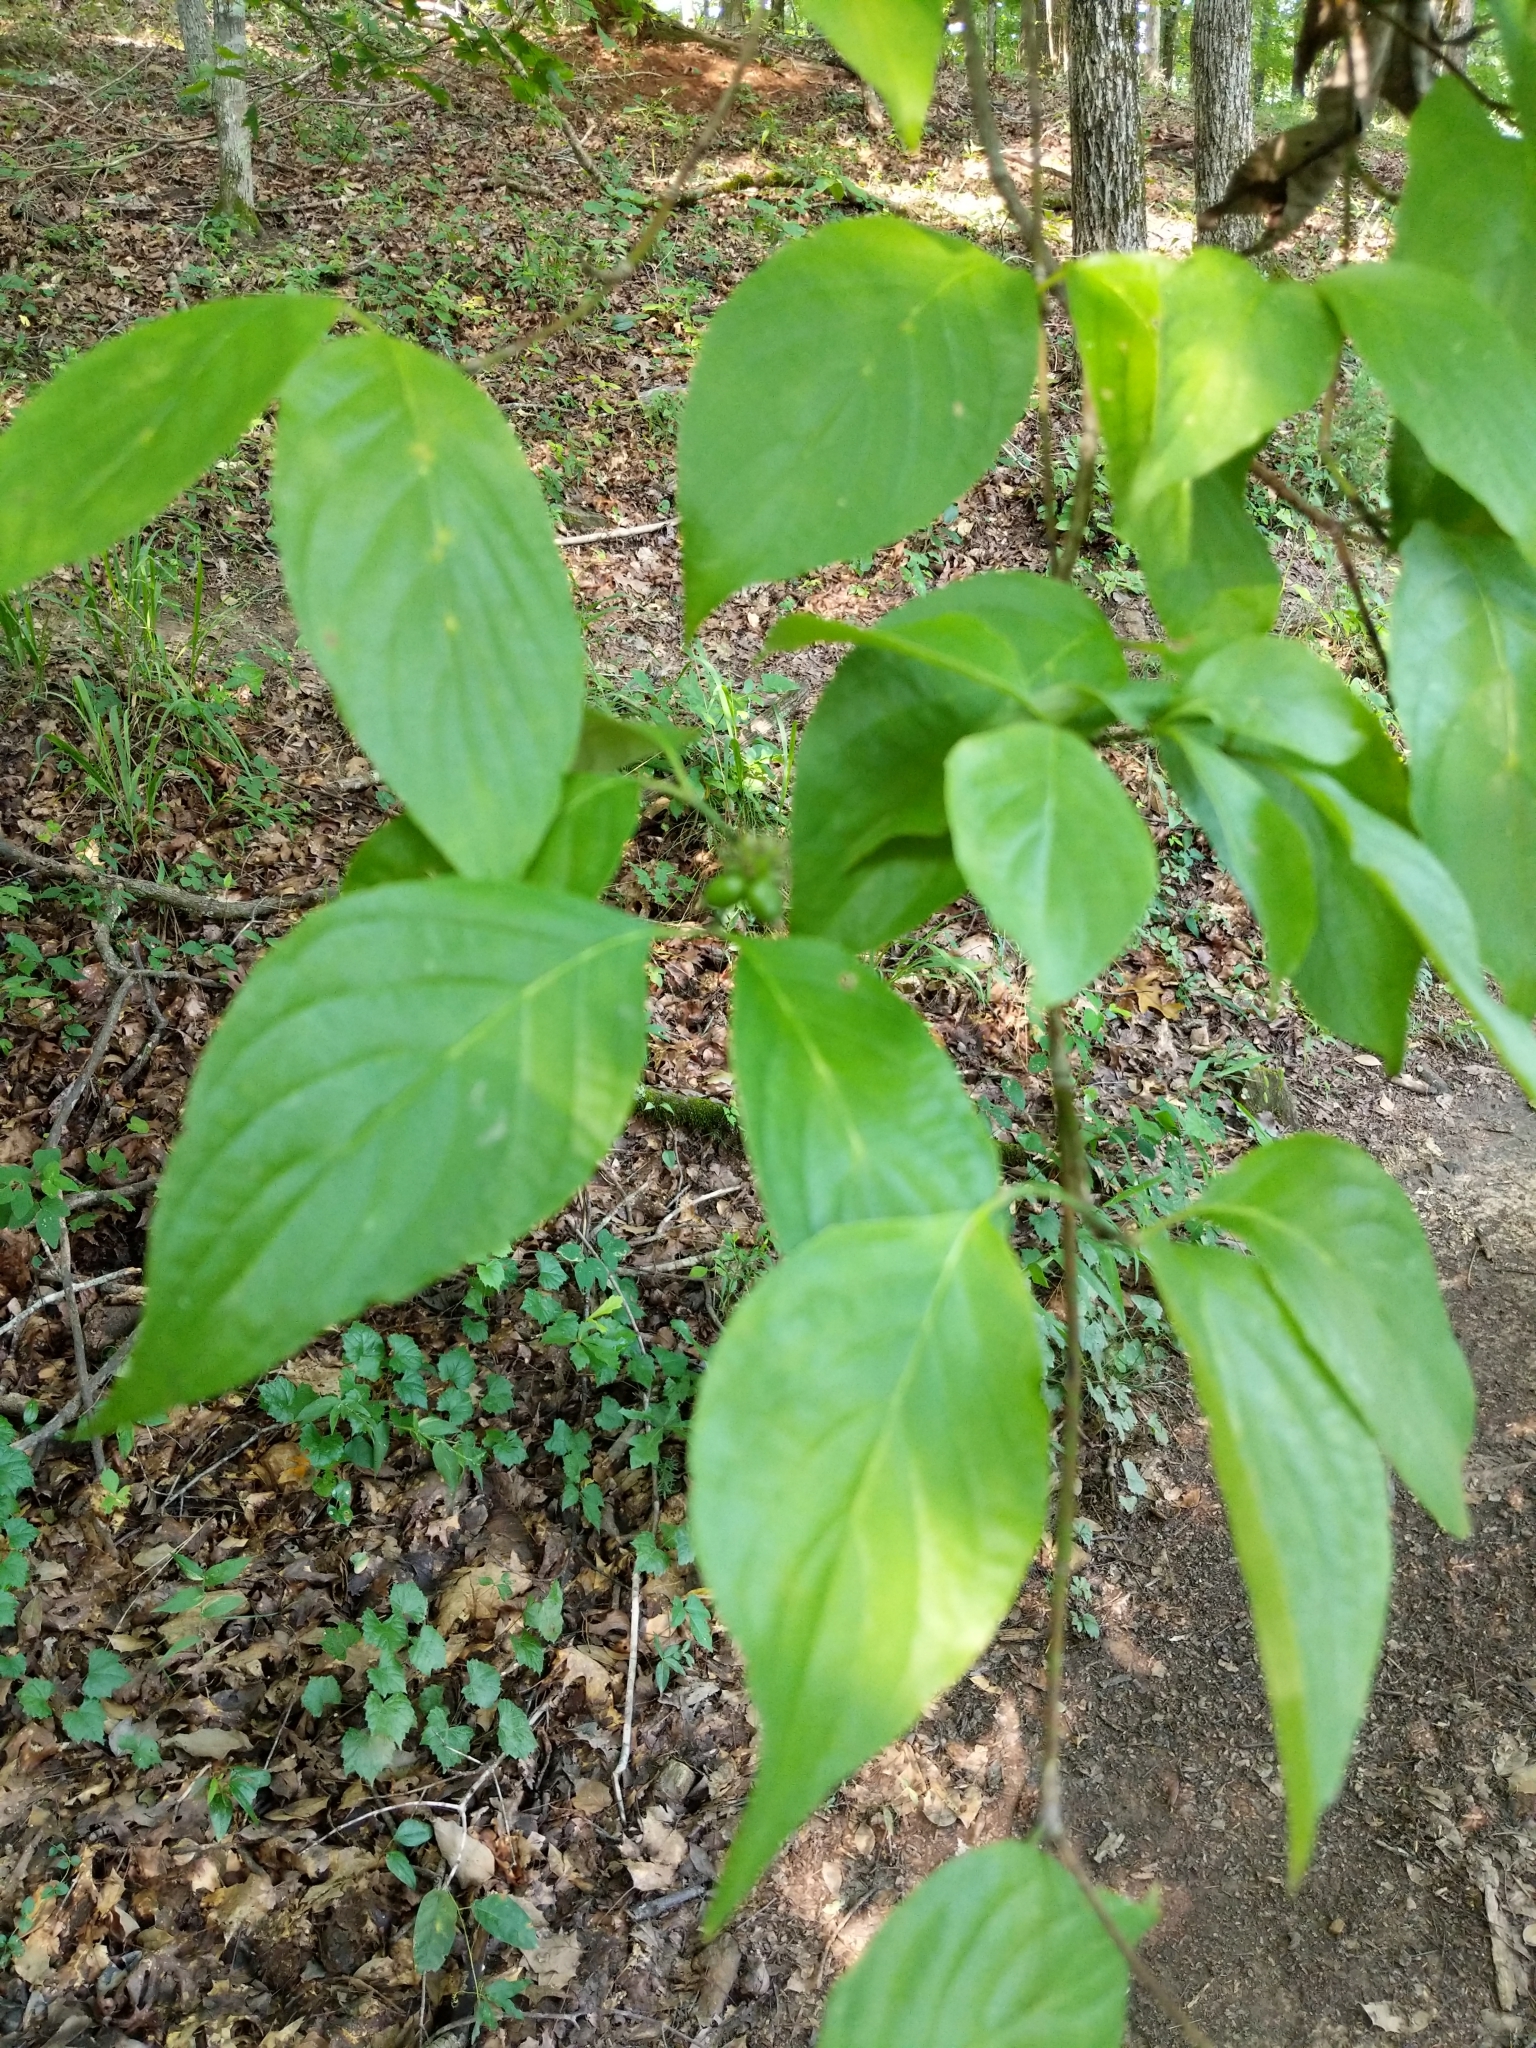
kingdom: Plantae
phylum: Tracheophyta
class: Magnoliopsida
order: Cornales
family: Cornaceae
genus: Cornus
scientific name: Cornus florida
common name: Flowering dogwood
